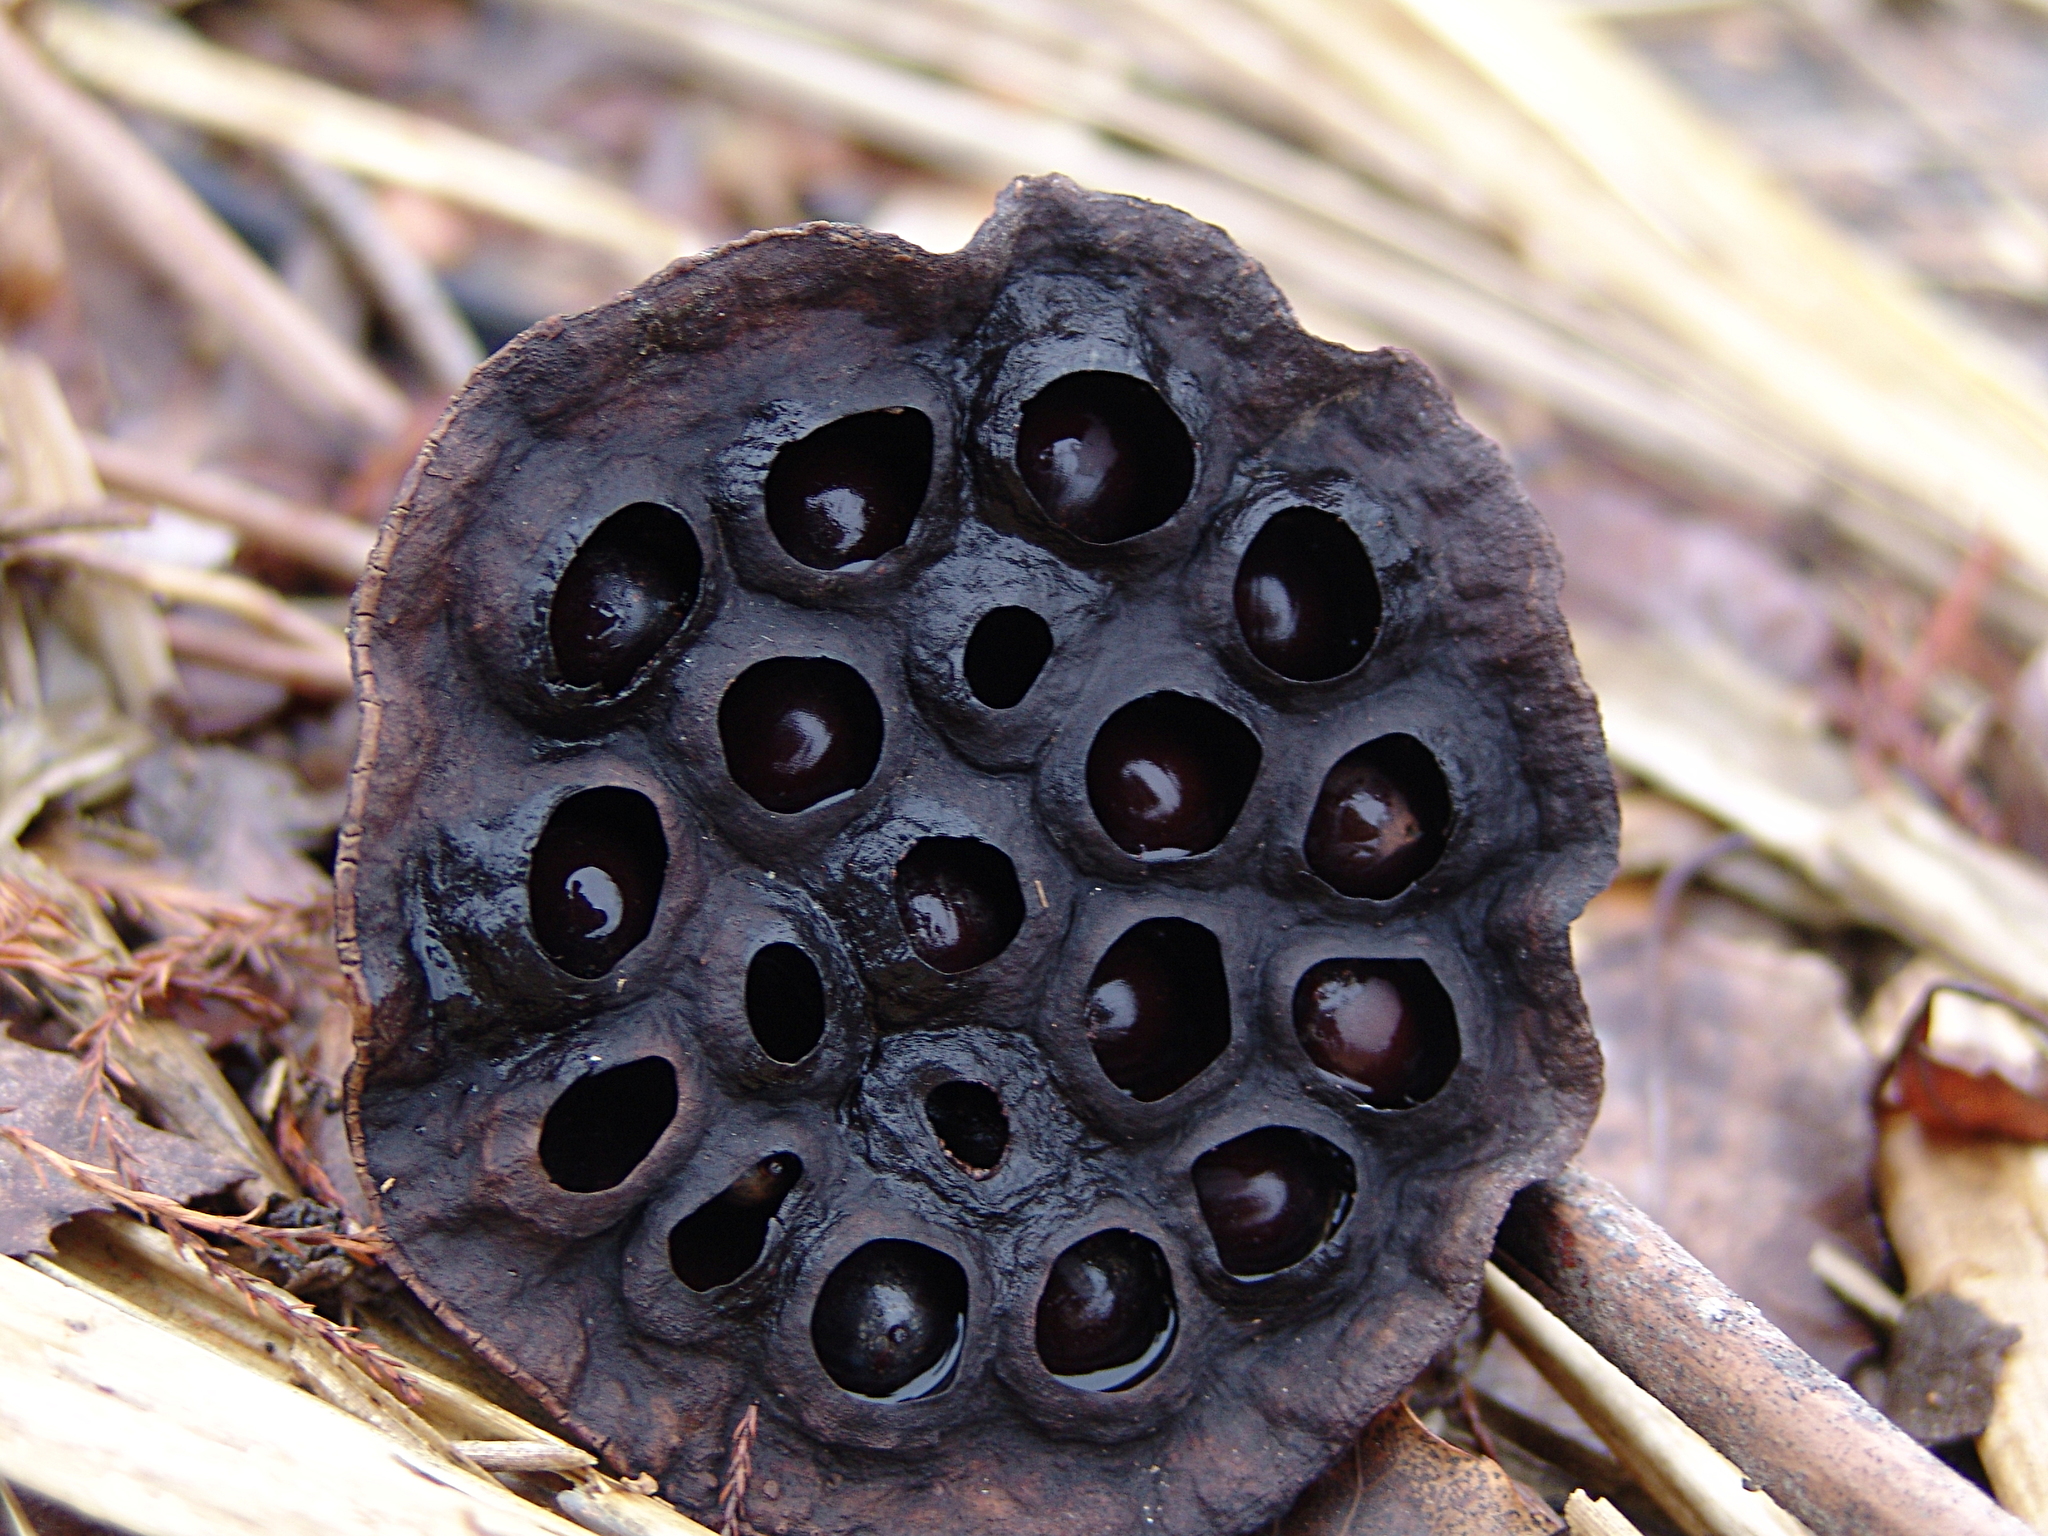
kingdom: Plantae
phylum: Tracheophyta
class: Magnoliopsida
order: Proteales
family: Nelumbonaceae
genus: Nelumbo
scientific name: Nelumbo lutea
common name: American lotus
